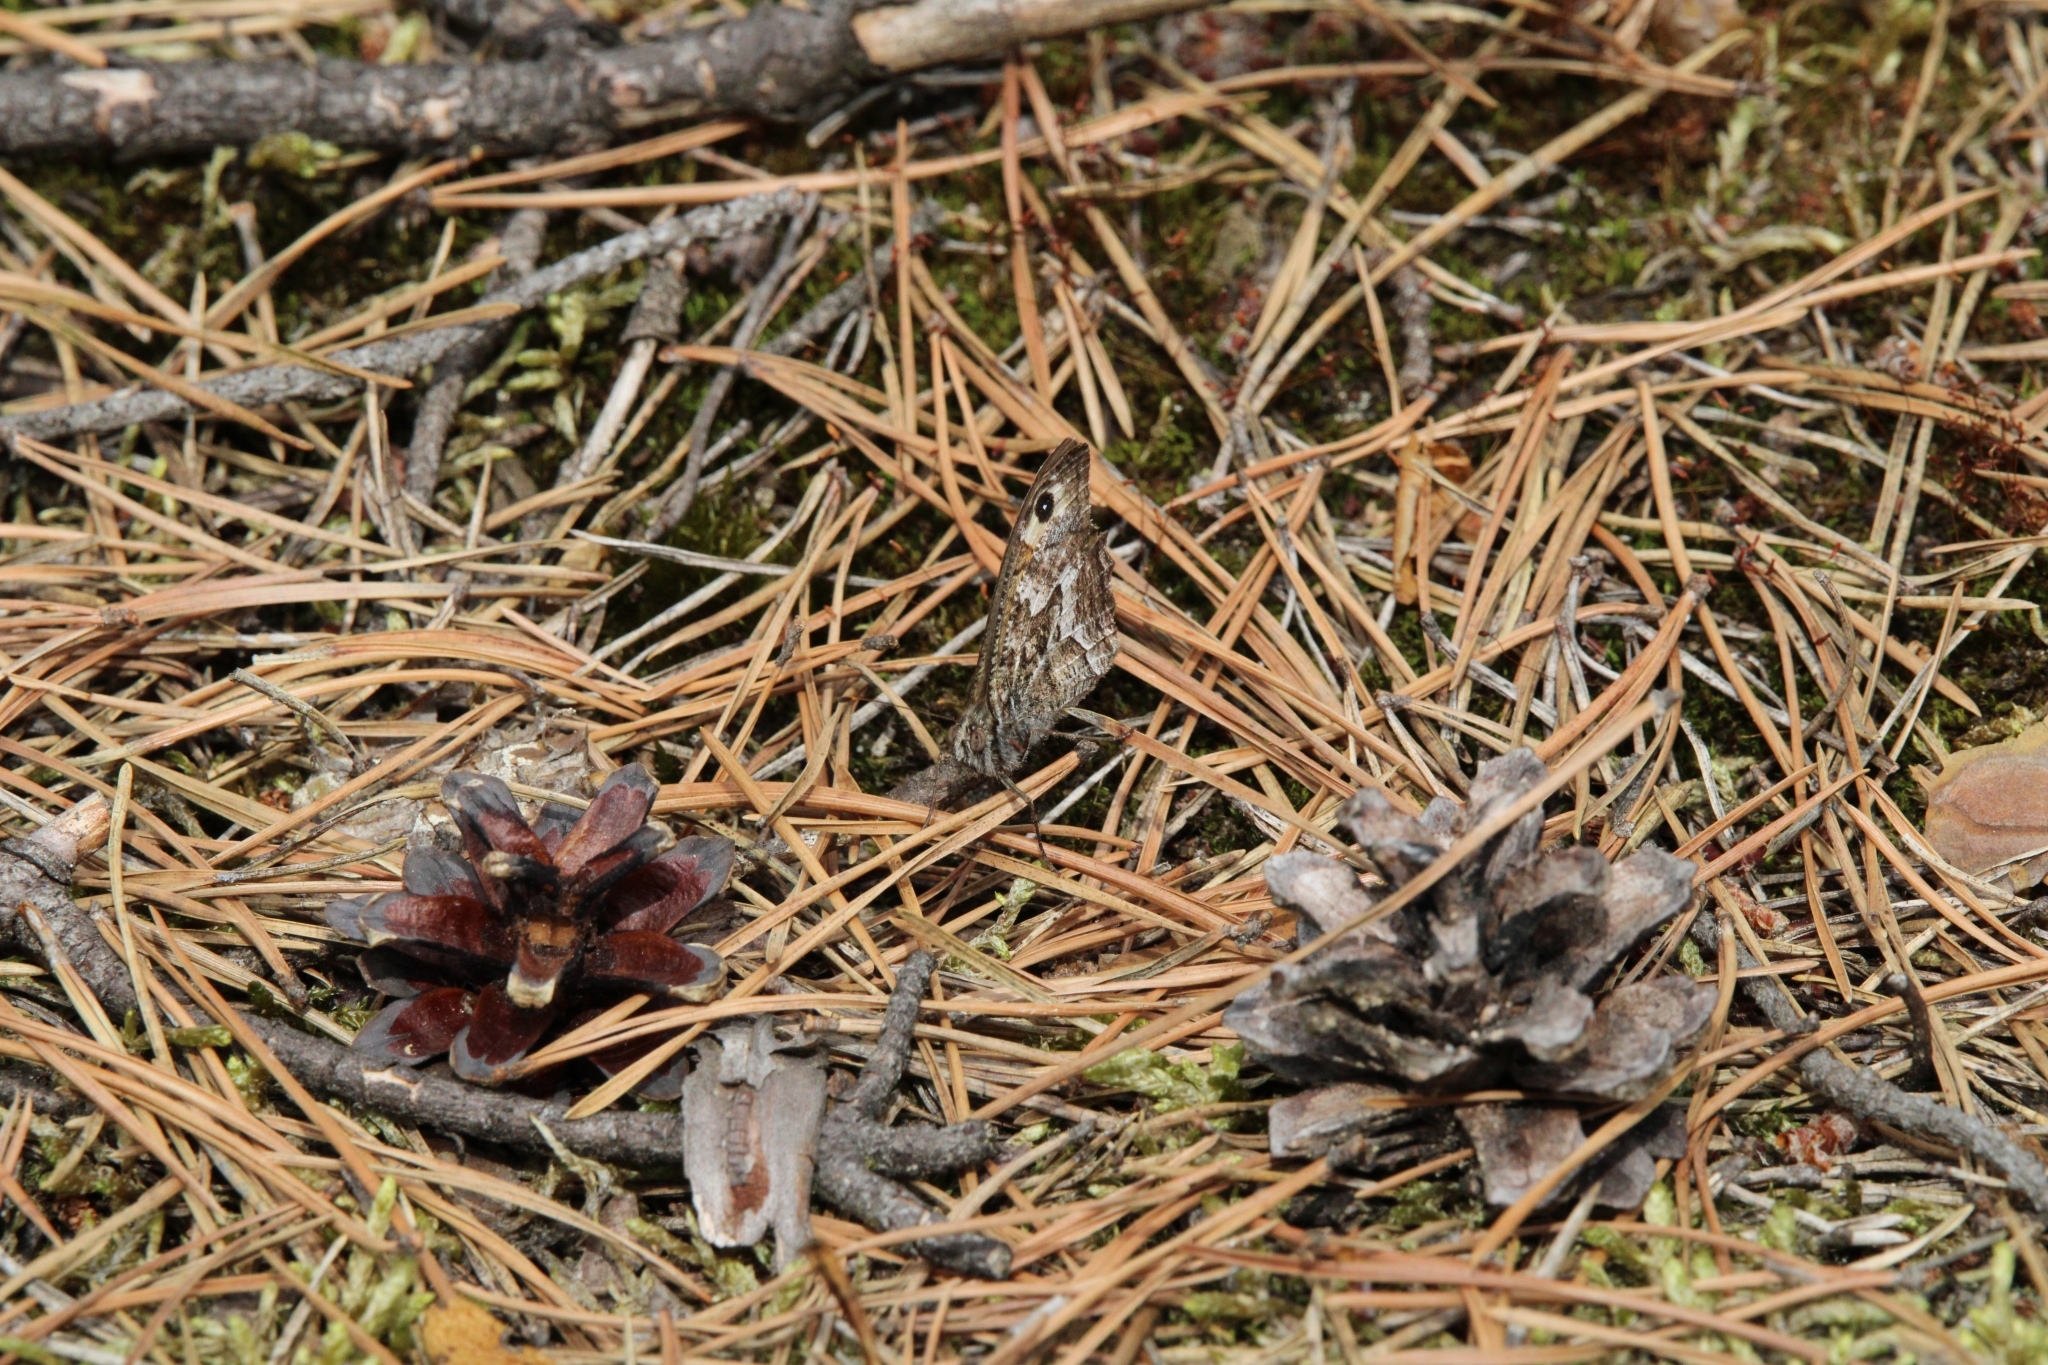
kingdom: Animalia
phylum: Arthropoda
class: Insecta
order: Lepidoptera
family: Nymphalidae
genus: Hipparchia
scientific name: Hipparchia semele
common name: Grayling
